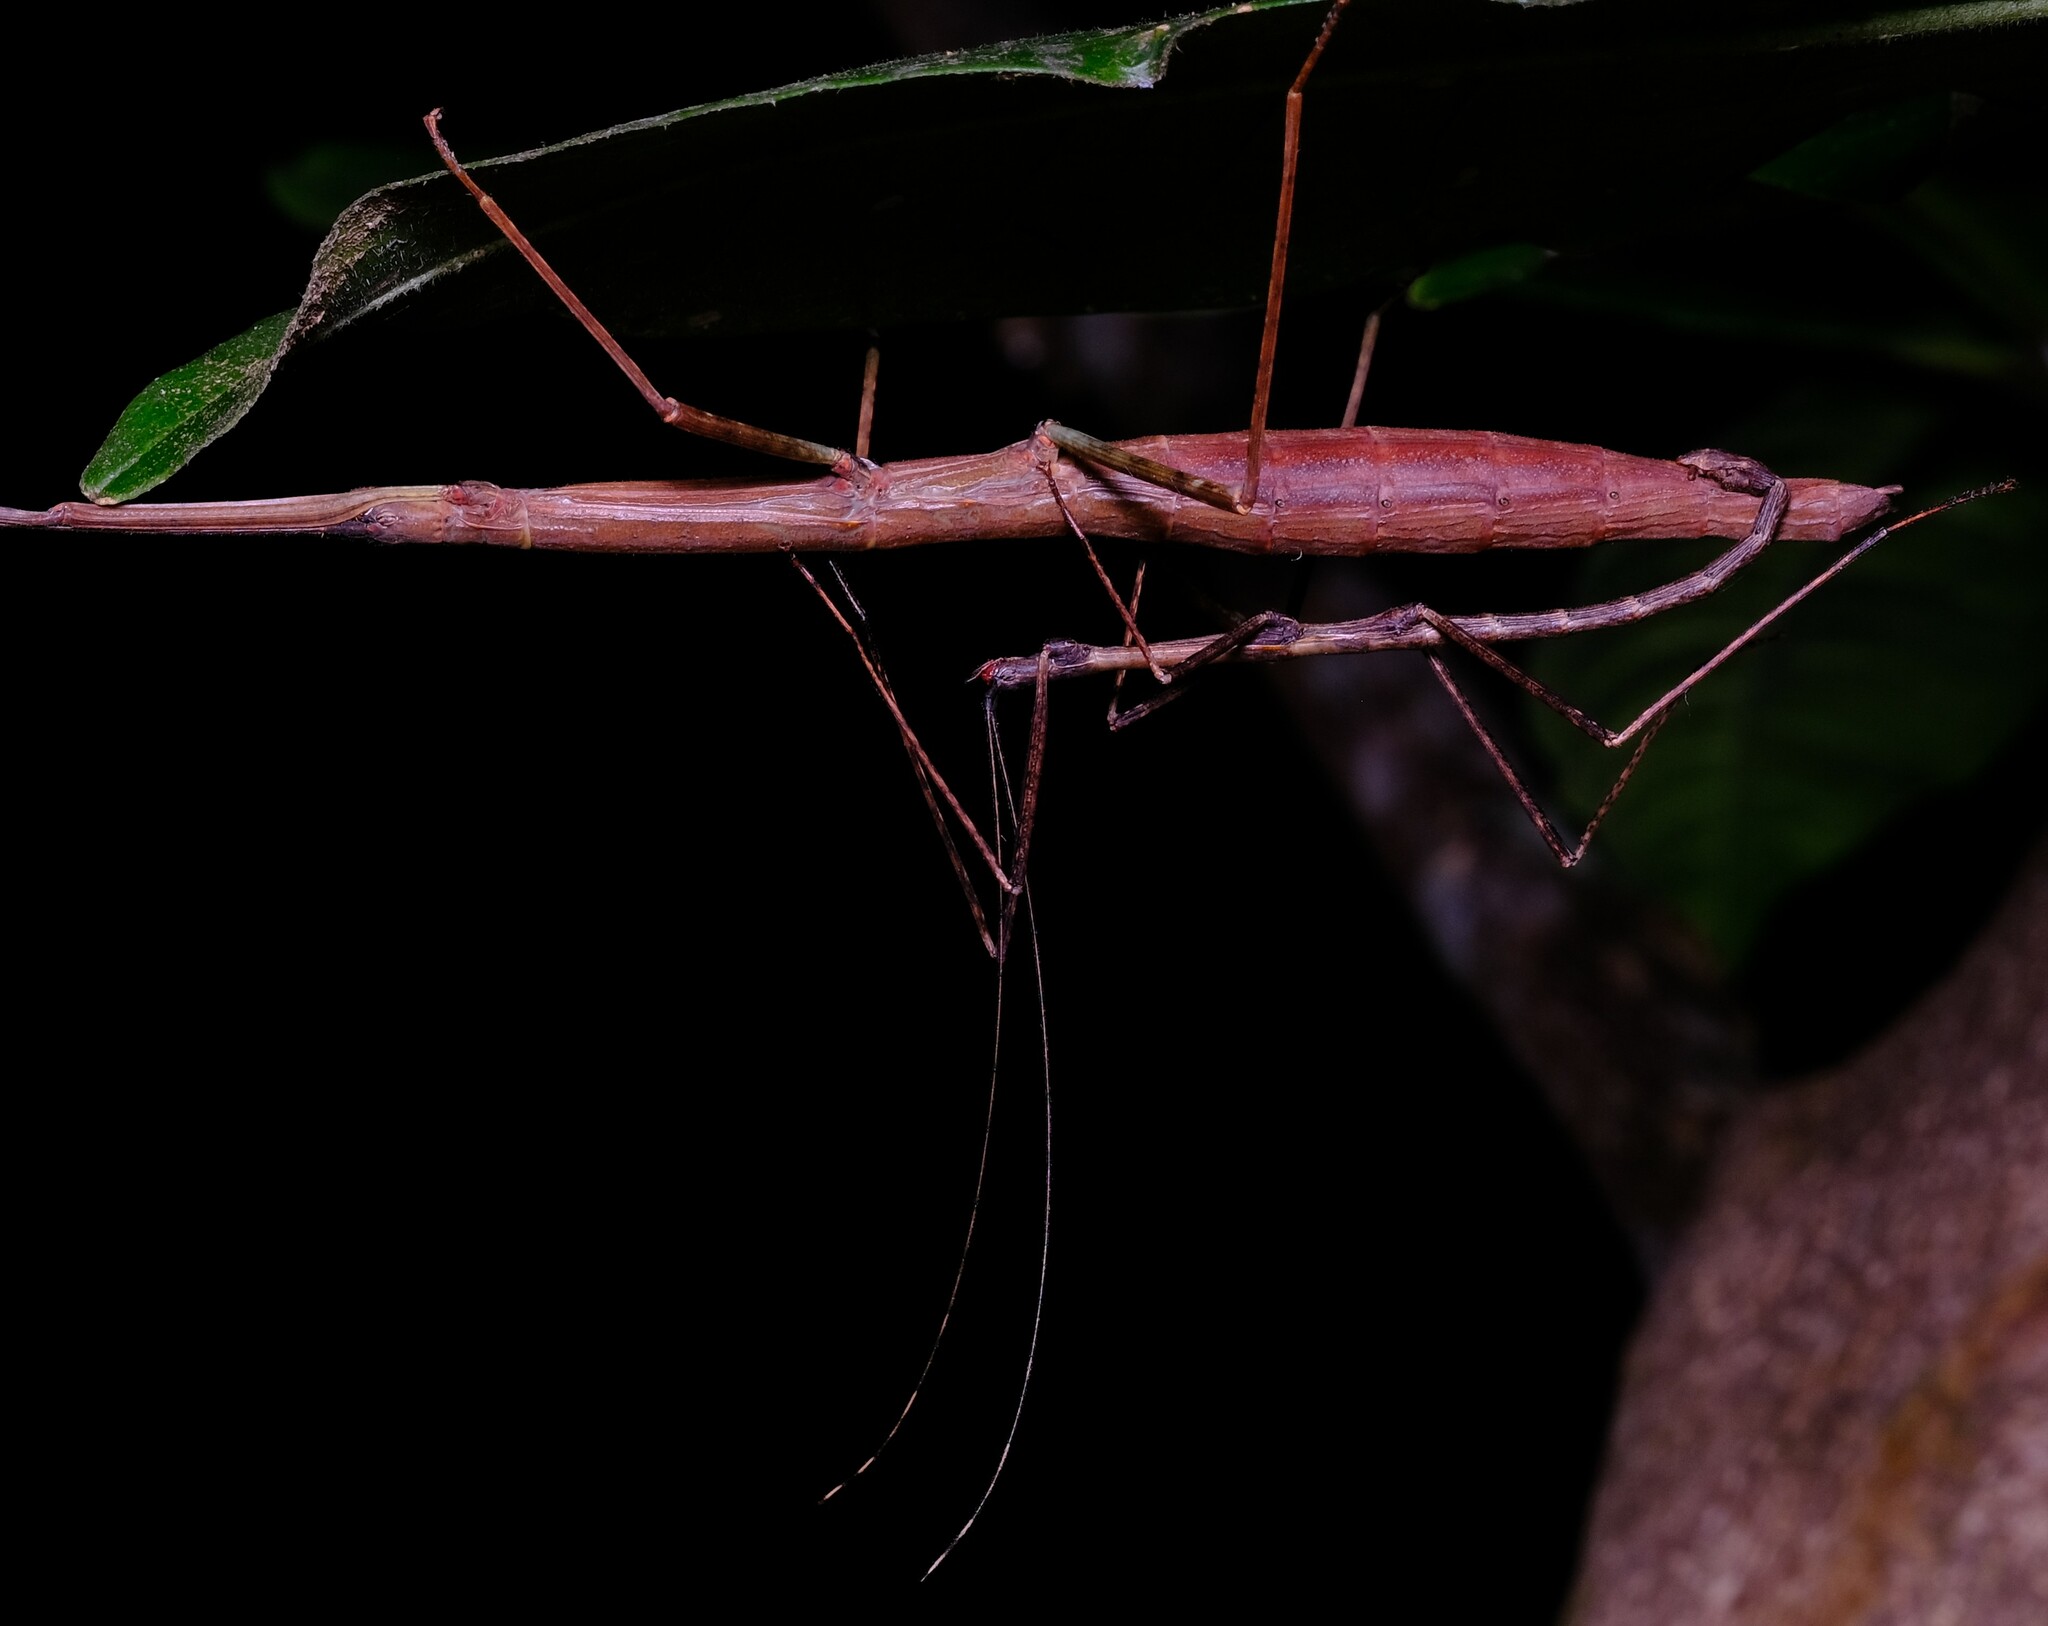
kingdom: Animalia
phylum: Arthropoda
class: Insecta
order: Phasmida
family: Lonchodidae
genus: Candovia
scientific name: Candovia granulosa
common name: Granulated stick-insect
